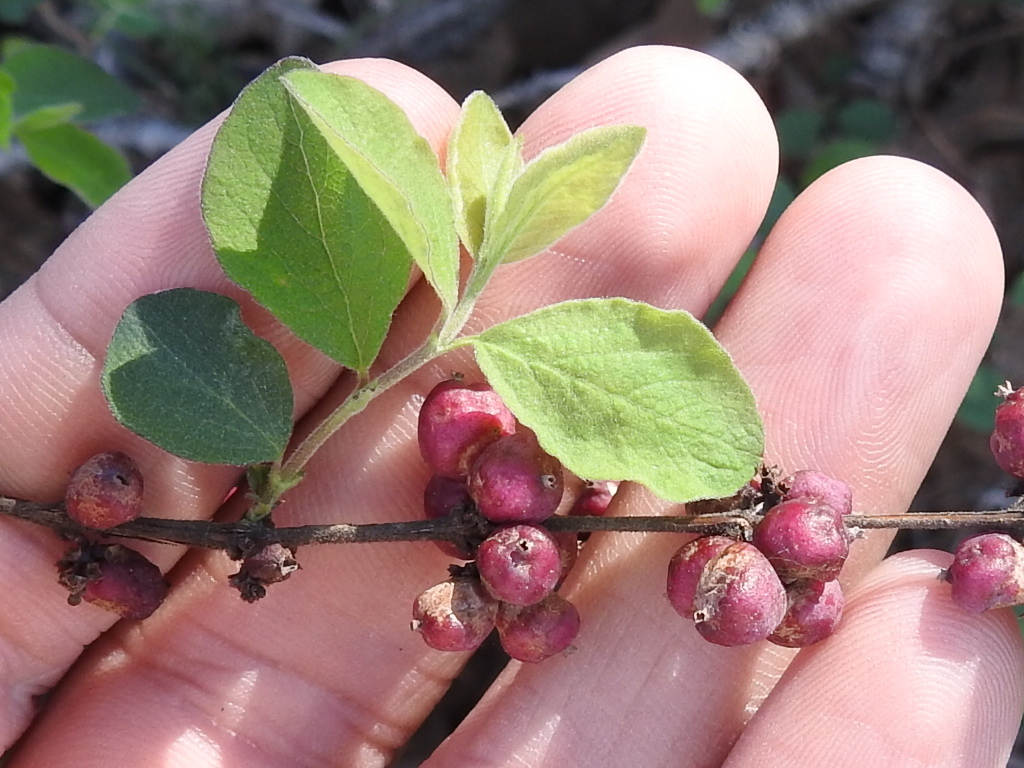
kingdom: Plantae
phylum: Tracheophyta
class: Magnoliopsida
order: Dipsacales
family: Caprifoliaceae
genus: Symphoricarpos
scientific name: Symphoricarpos orbiculatus
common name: Coralberry
